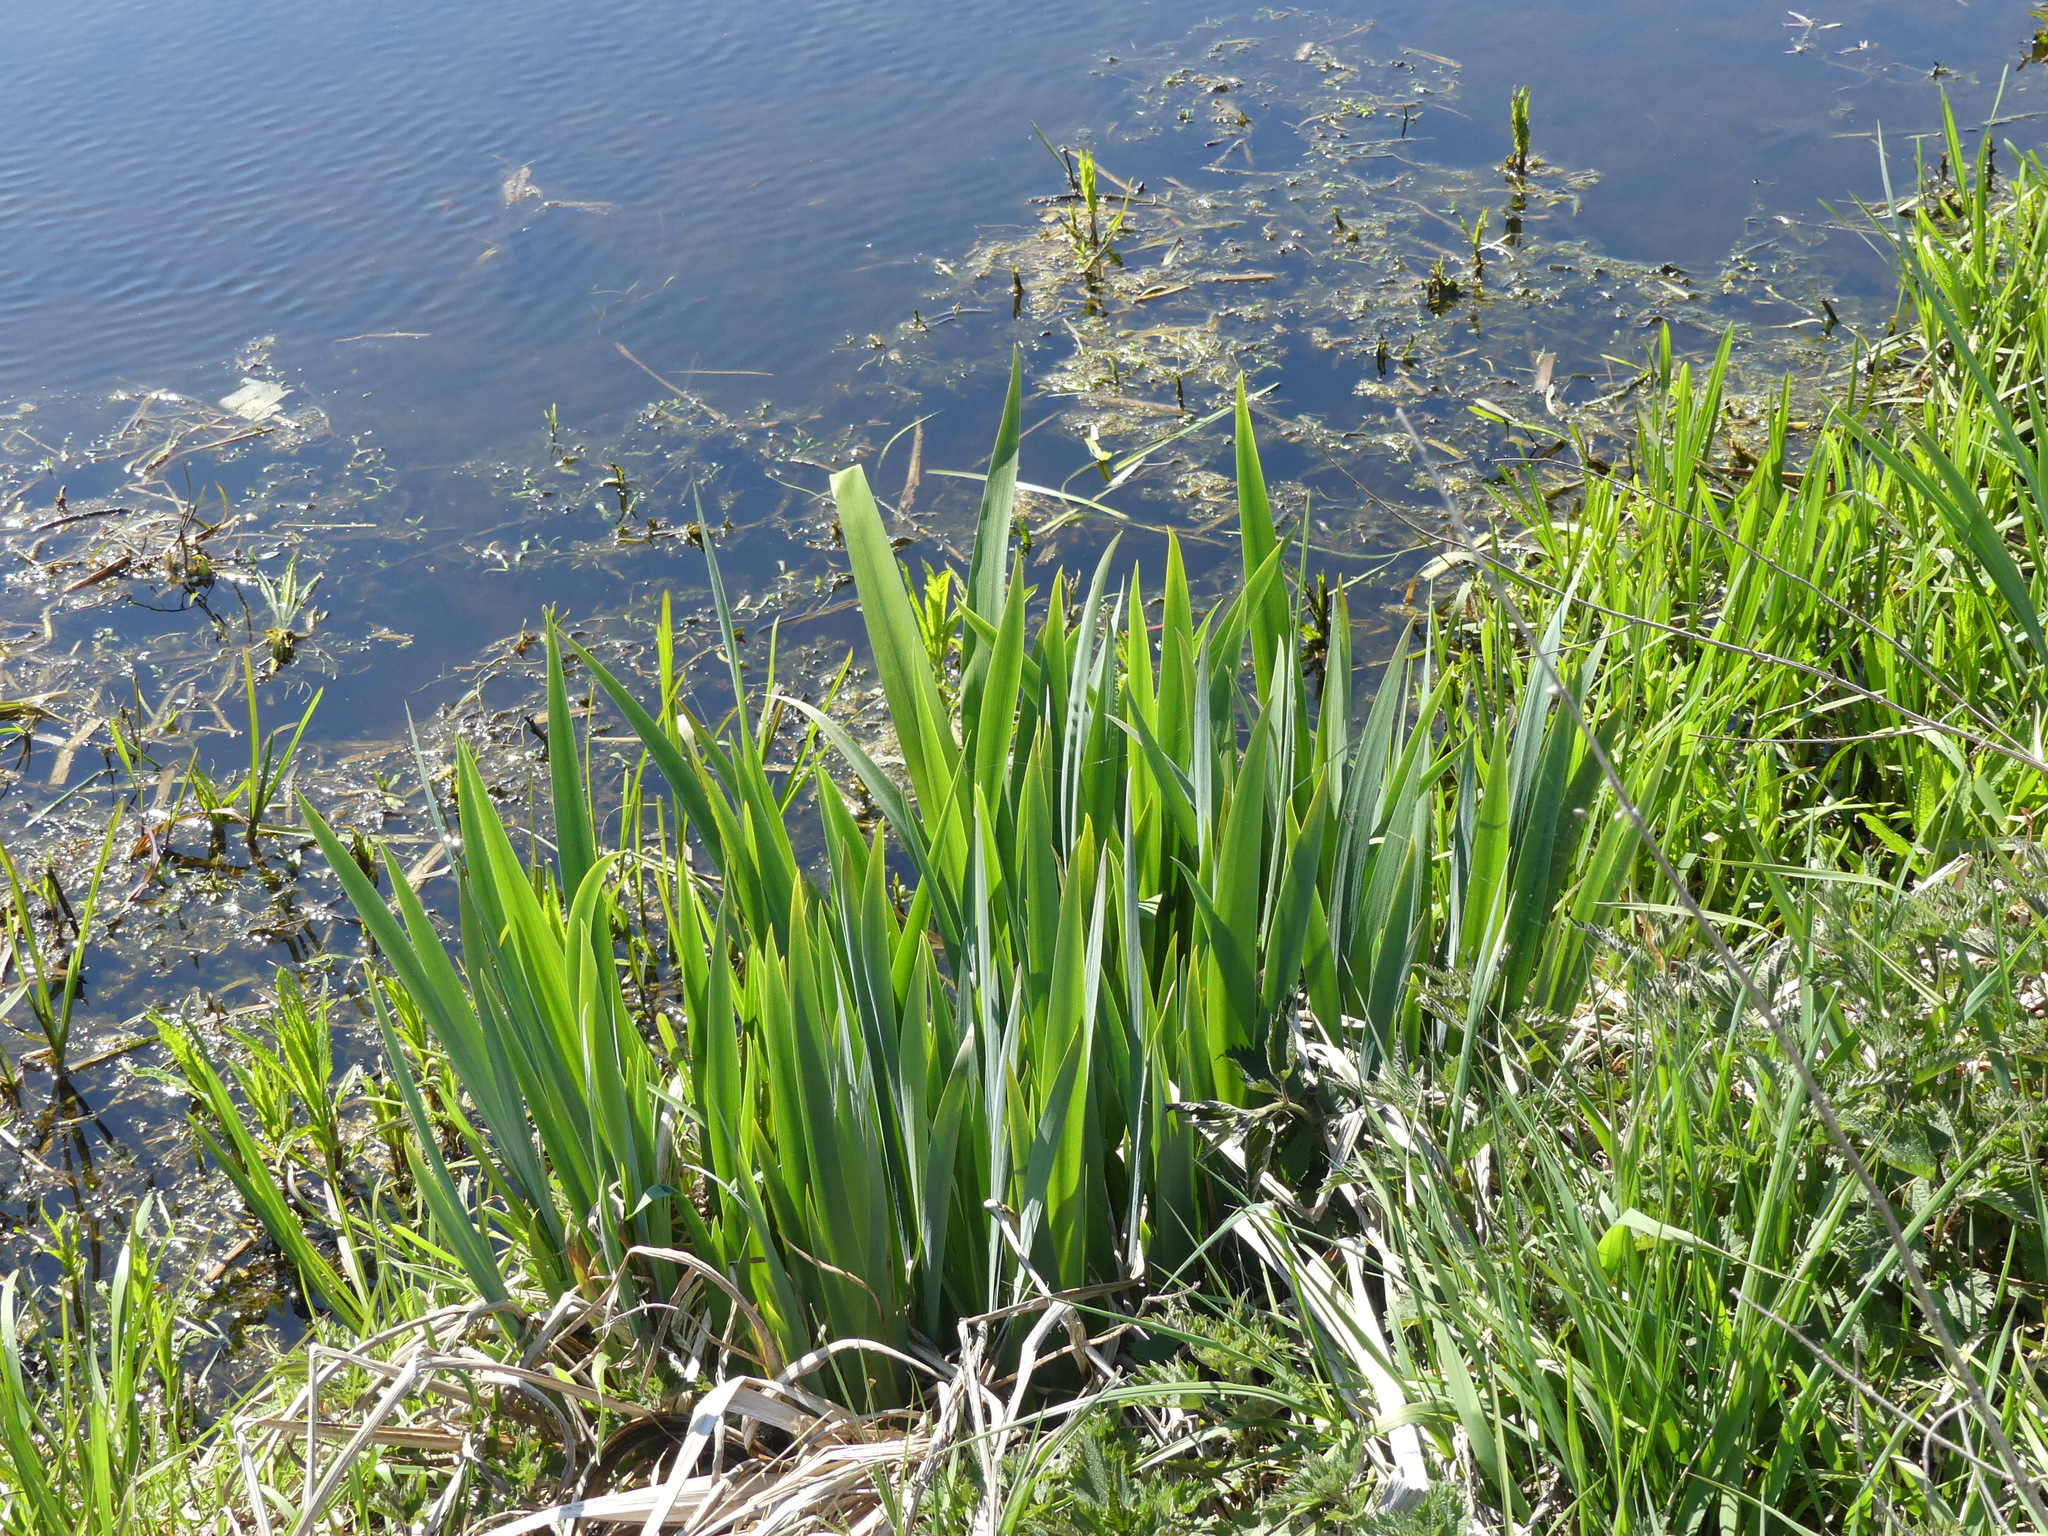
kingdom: Plantae
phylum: Tracheophyta
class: Liliopsida
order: Asparagales
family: Iridaceae
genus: Iris
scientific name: Iris pseudacorus
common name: Yellow flag
